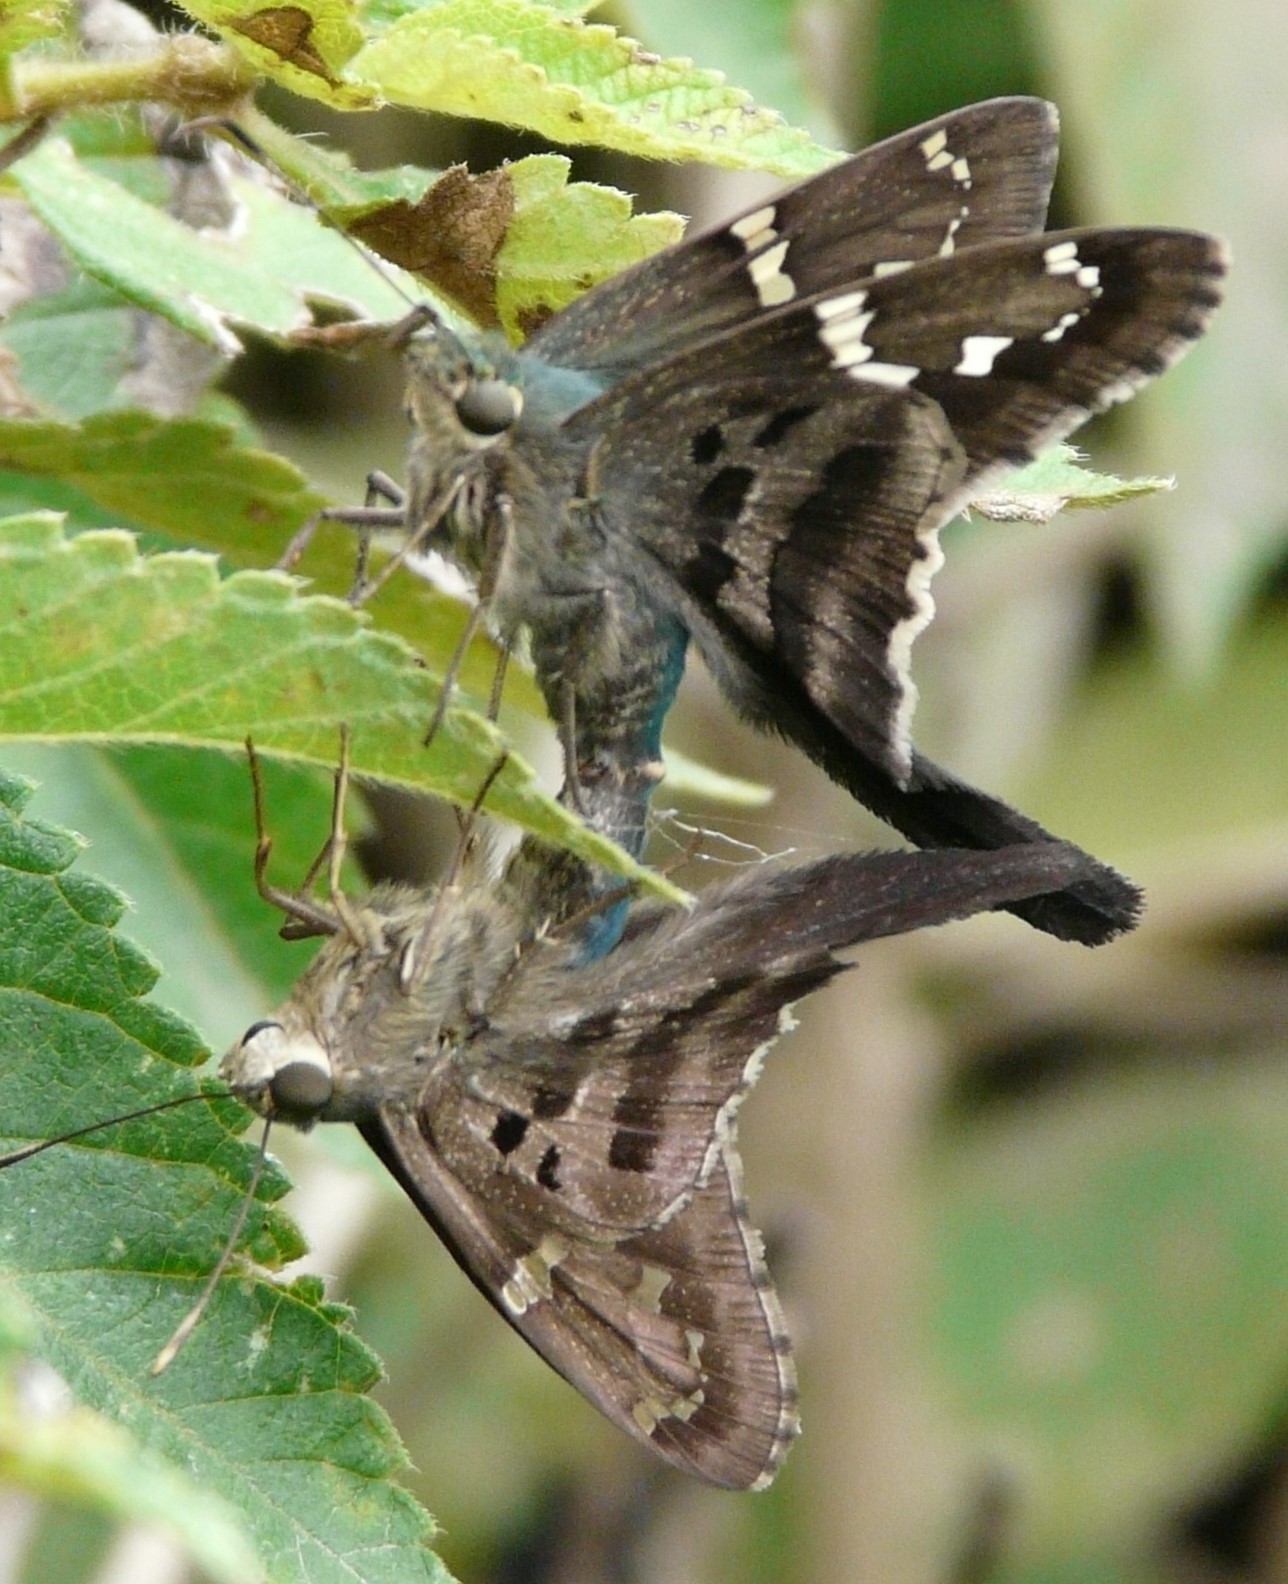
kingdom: Animalia
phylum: Arthropoda
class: Insecta
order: Lepidoptera
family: Hesperiidae
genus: Urbanus
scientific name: Urbanus proteus
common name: Long-tailed skipper
